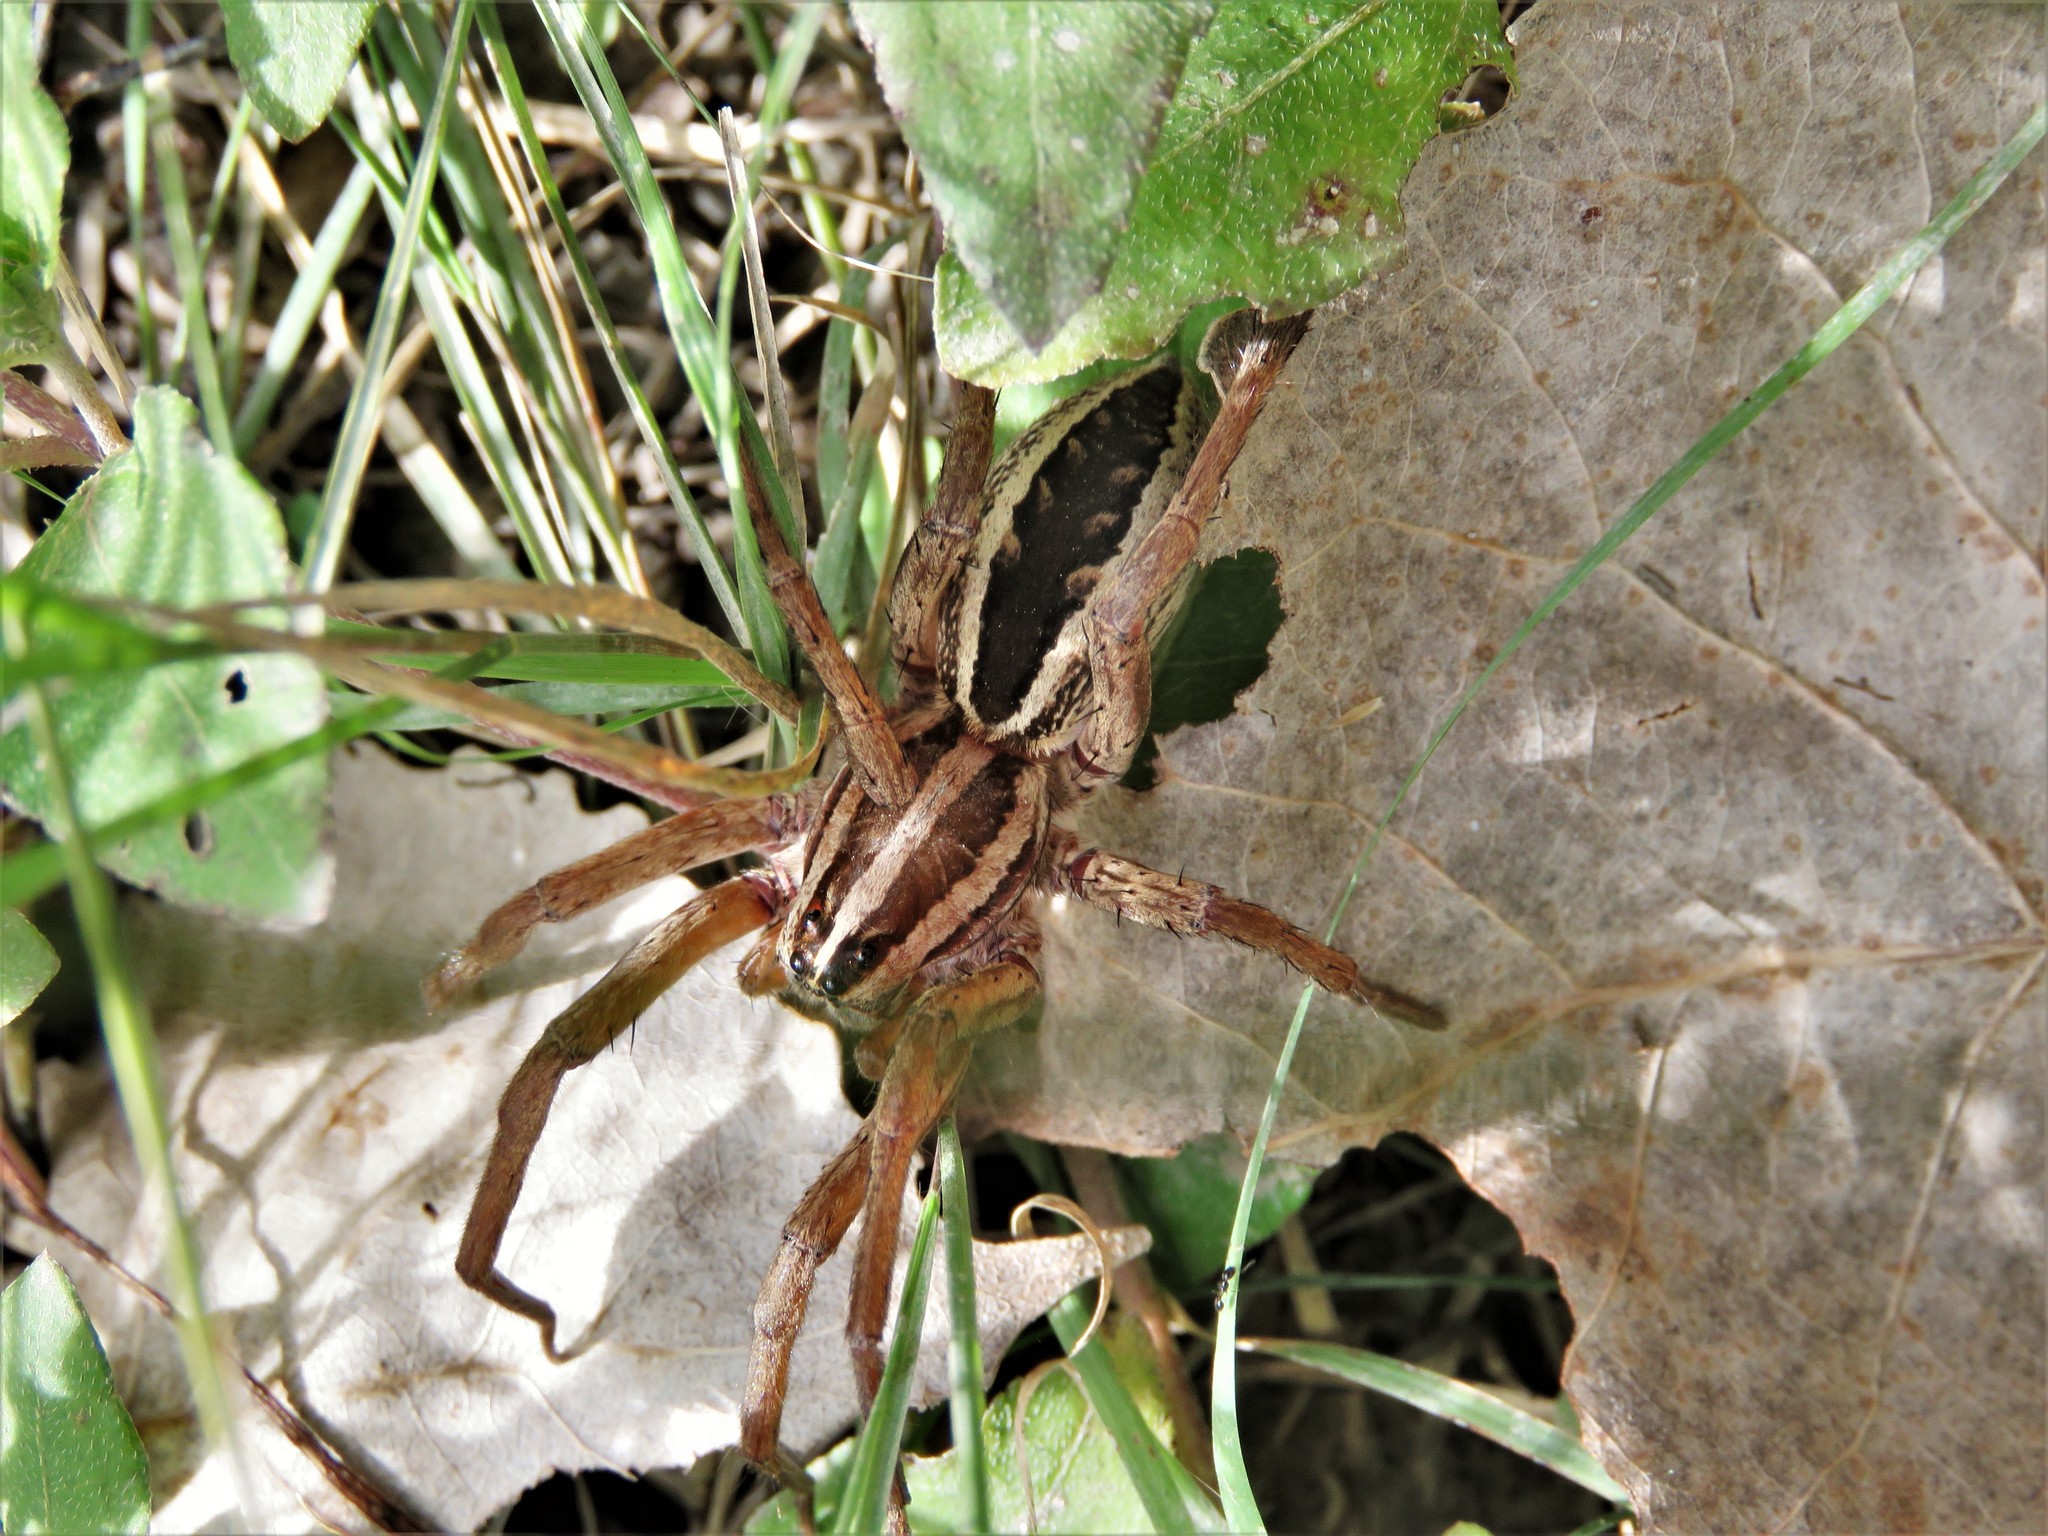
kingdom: Animalia
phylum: Arthropoda
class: Arachnida
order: Araneae
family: Lycosidae
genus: Rabidosa
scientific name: Rabidosa rabida
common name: Rabid wolf spider
